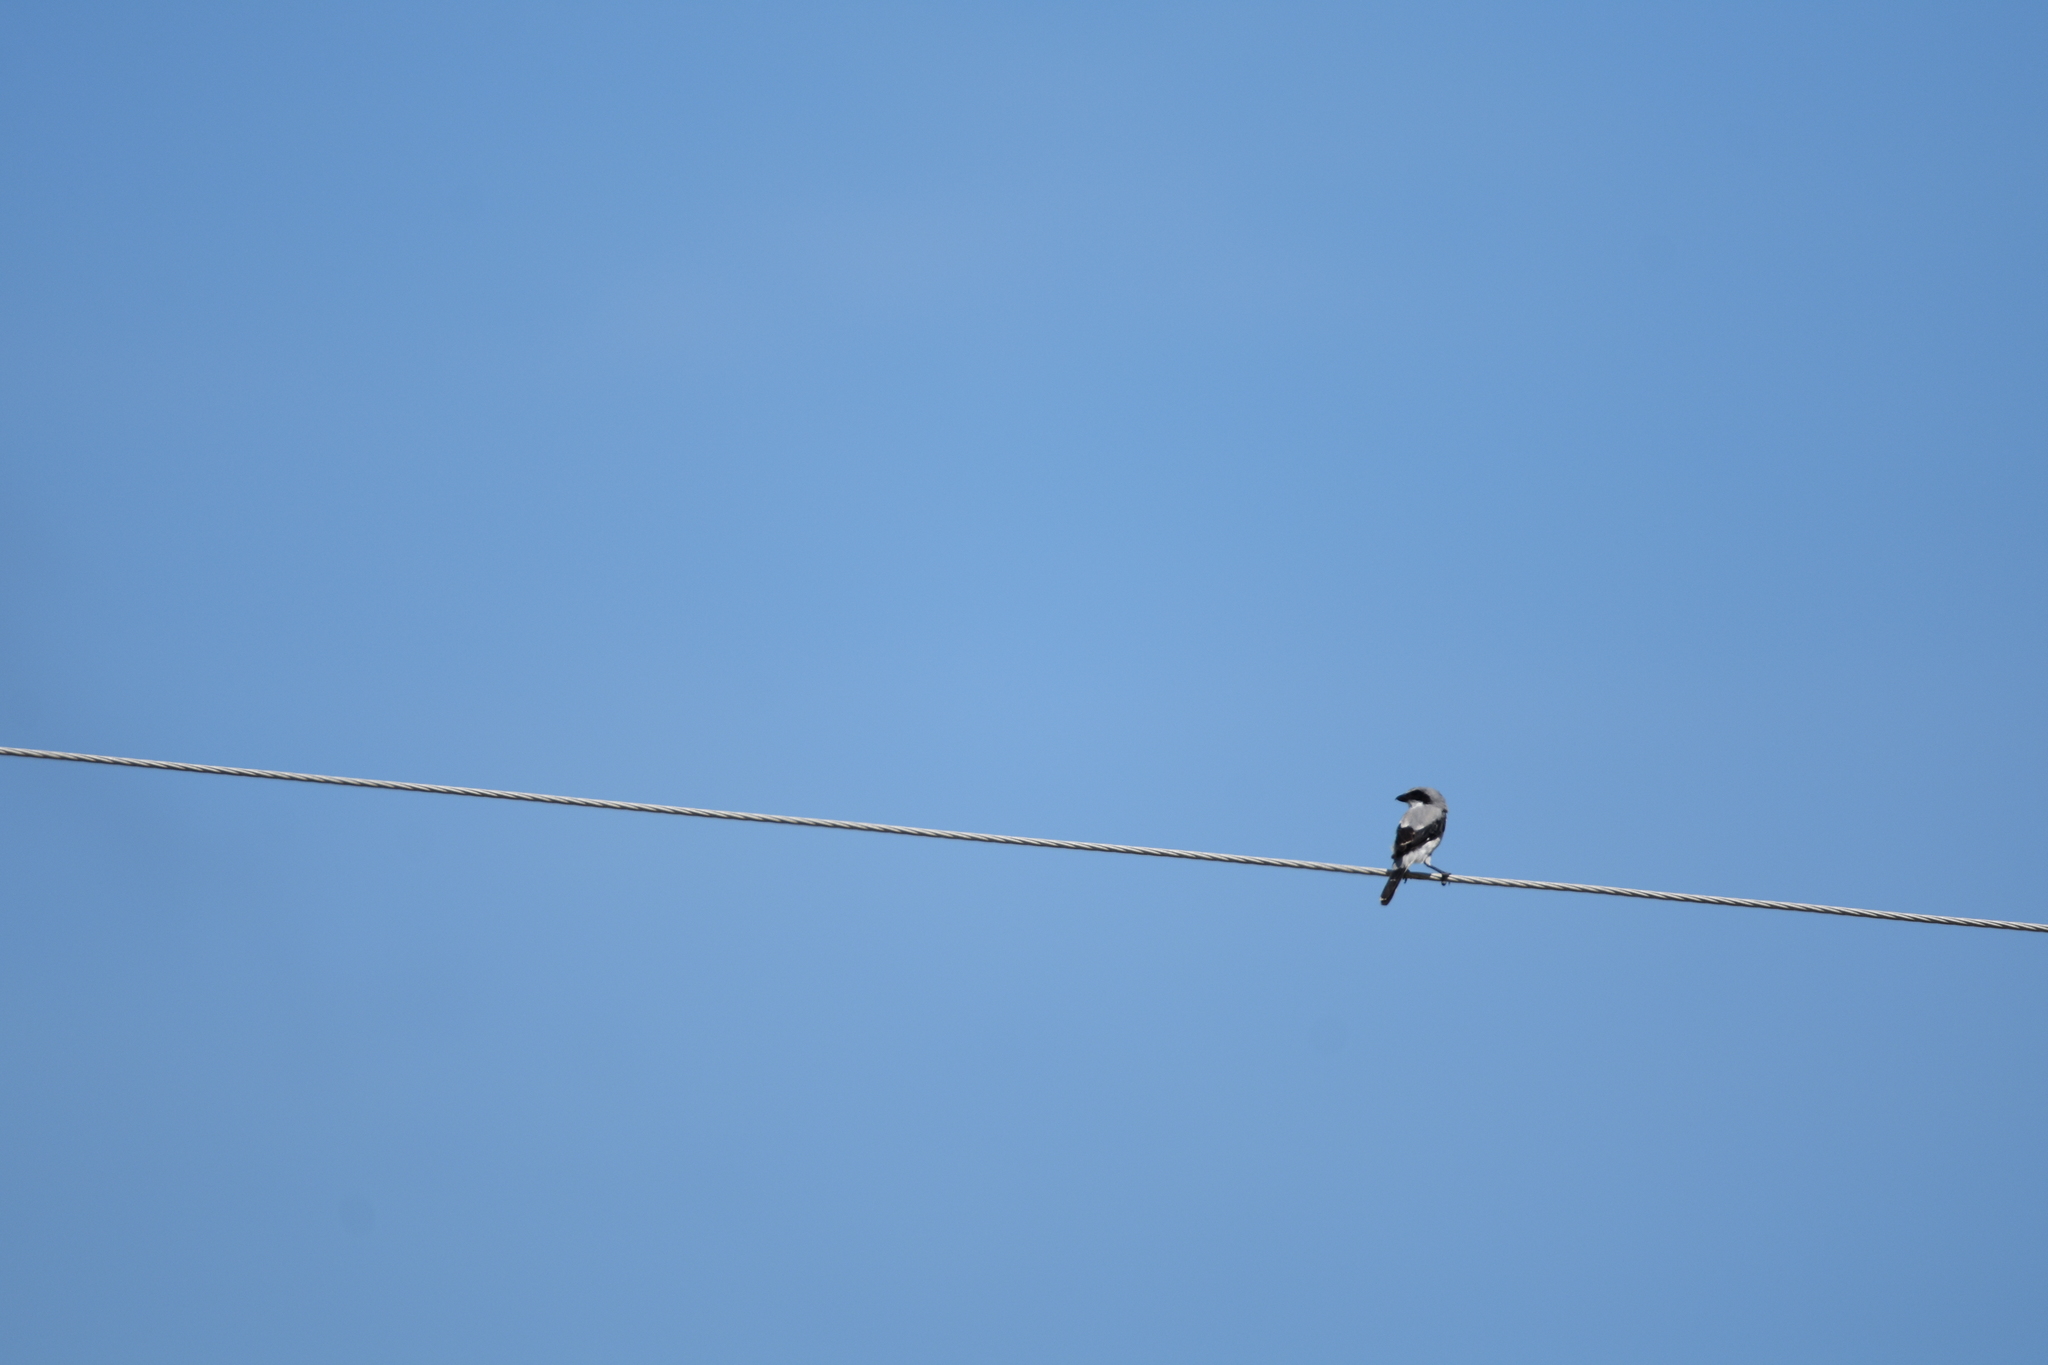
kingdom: Animalia
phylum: Chordata
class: Aves
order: Passeriformes
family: Laniidae
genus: Lanius
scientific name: Lanius ludovicianus
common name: Loggerhead shrike
